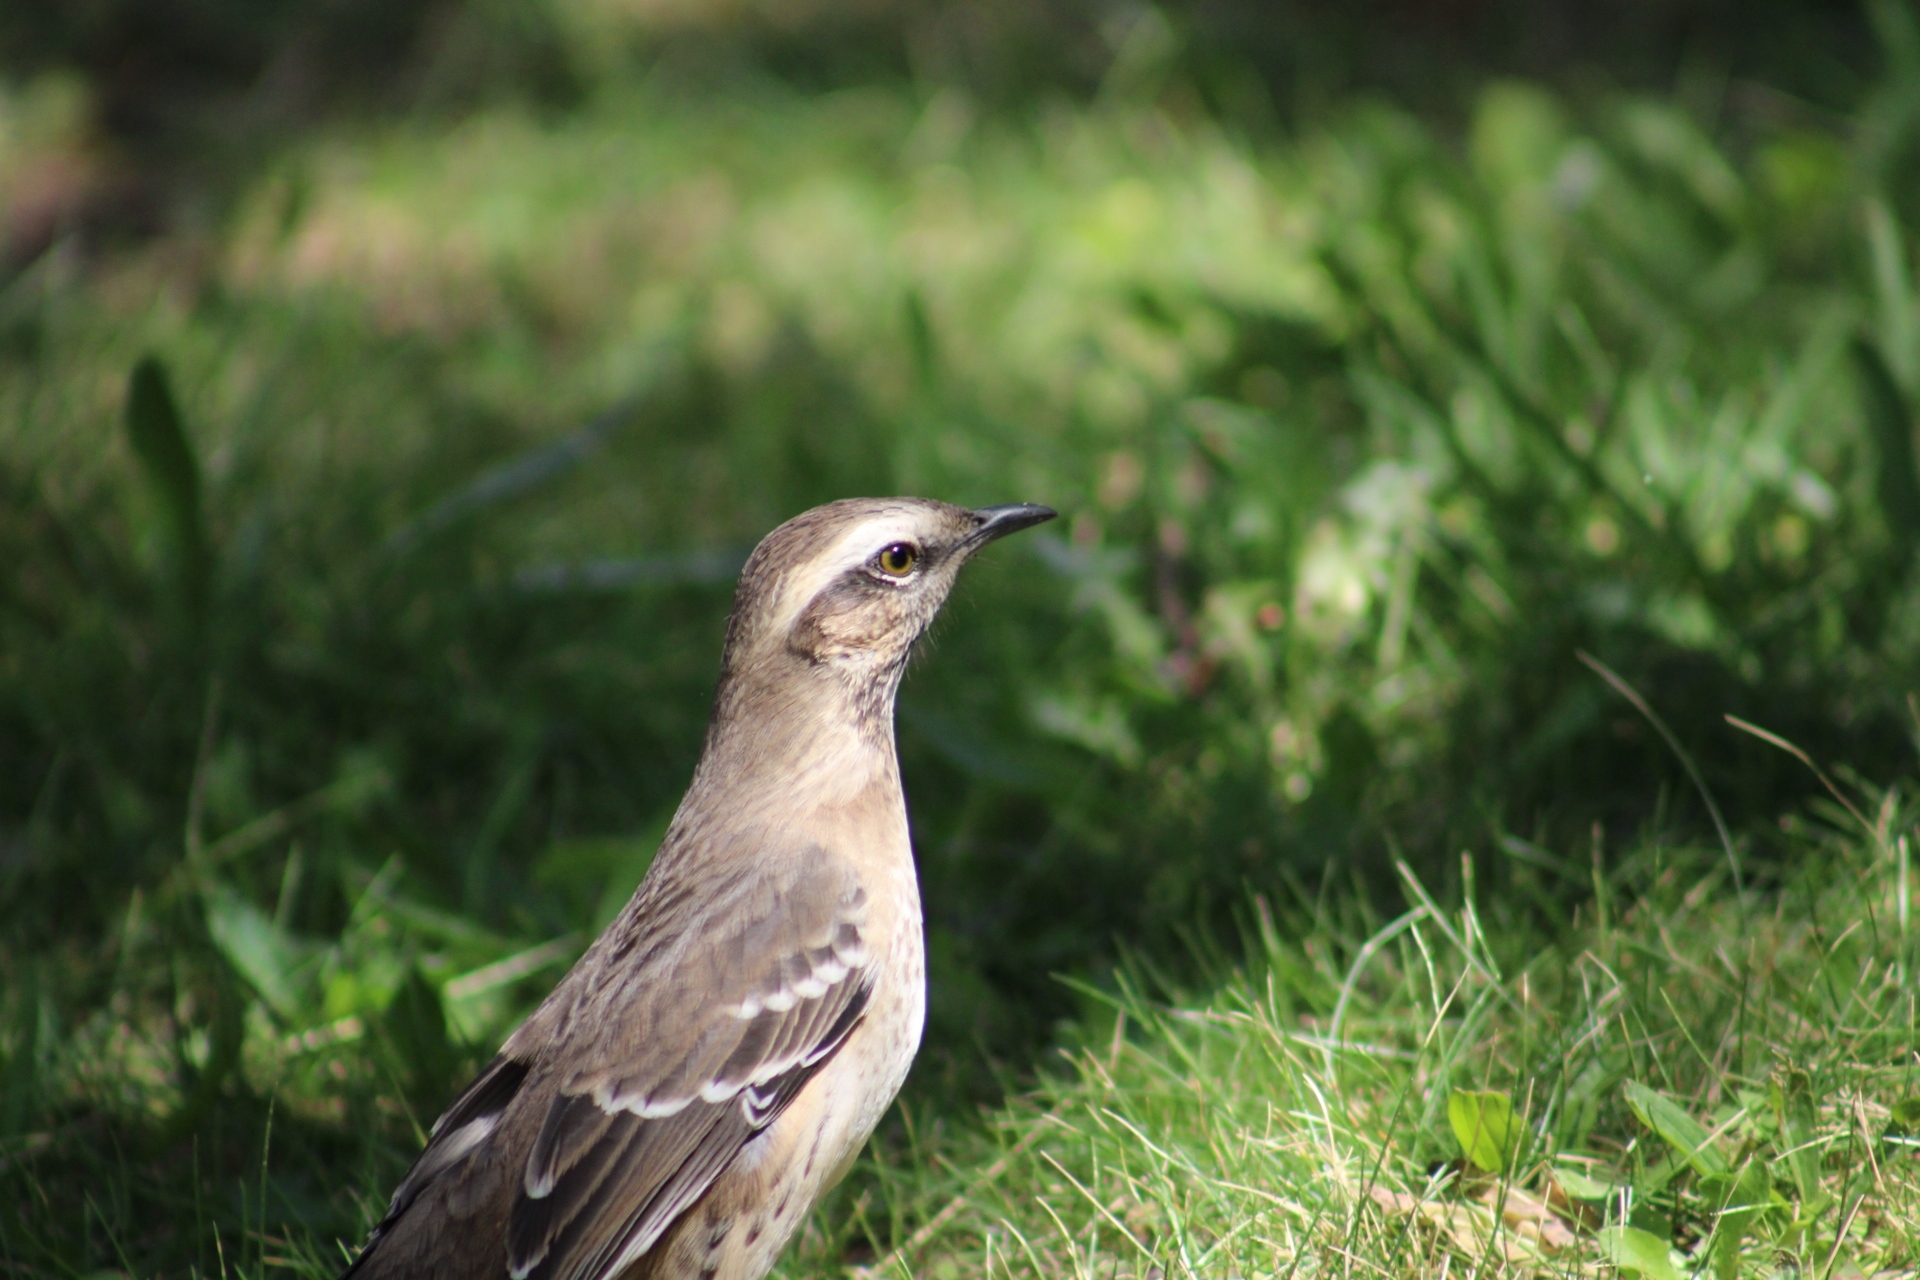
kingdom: Animalia
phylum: Chordata
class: Aves
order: Passeriformes
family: Mimidae
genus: Mimus
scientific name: Mimus thenca
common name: Chilean mockingbird
